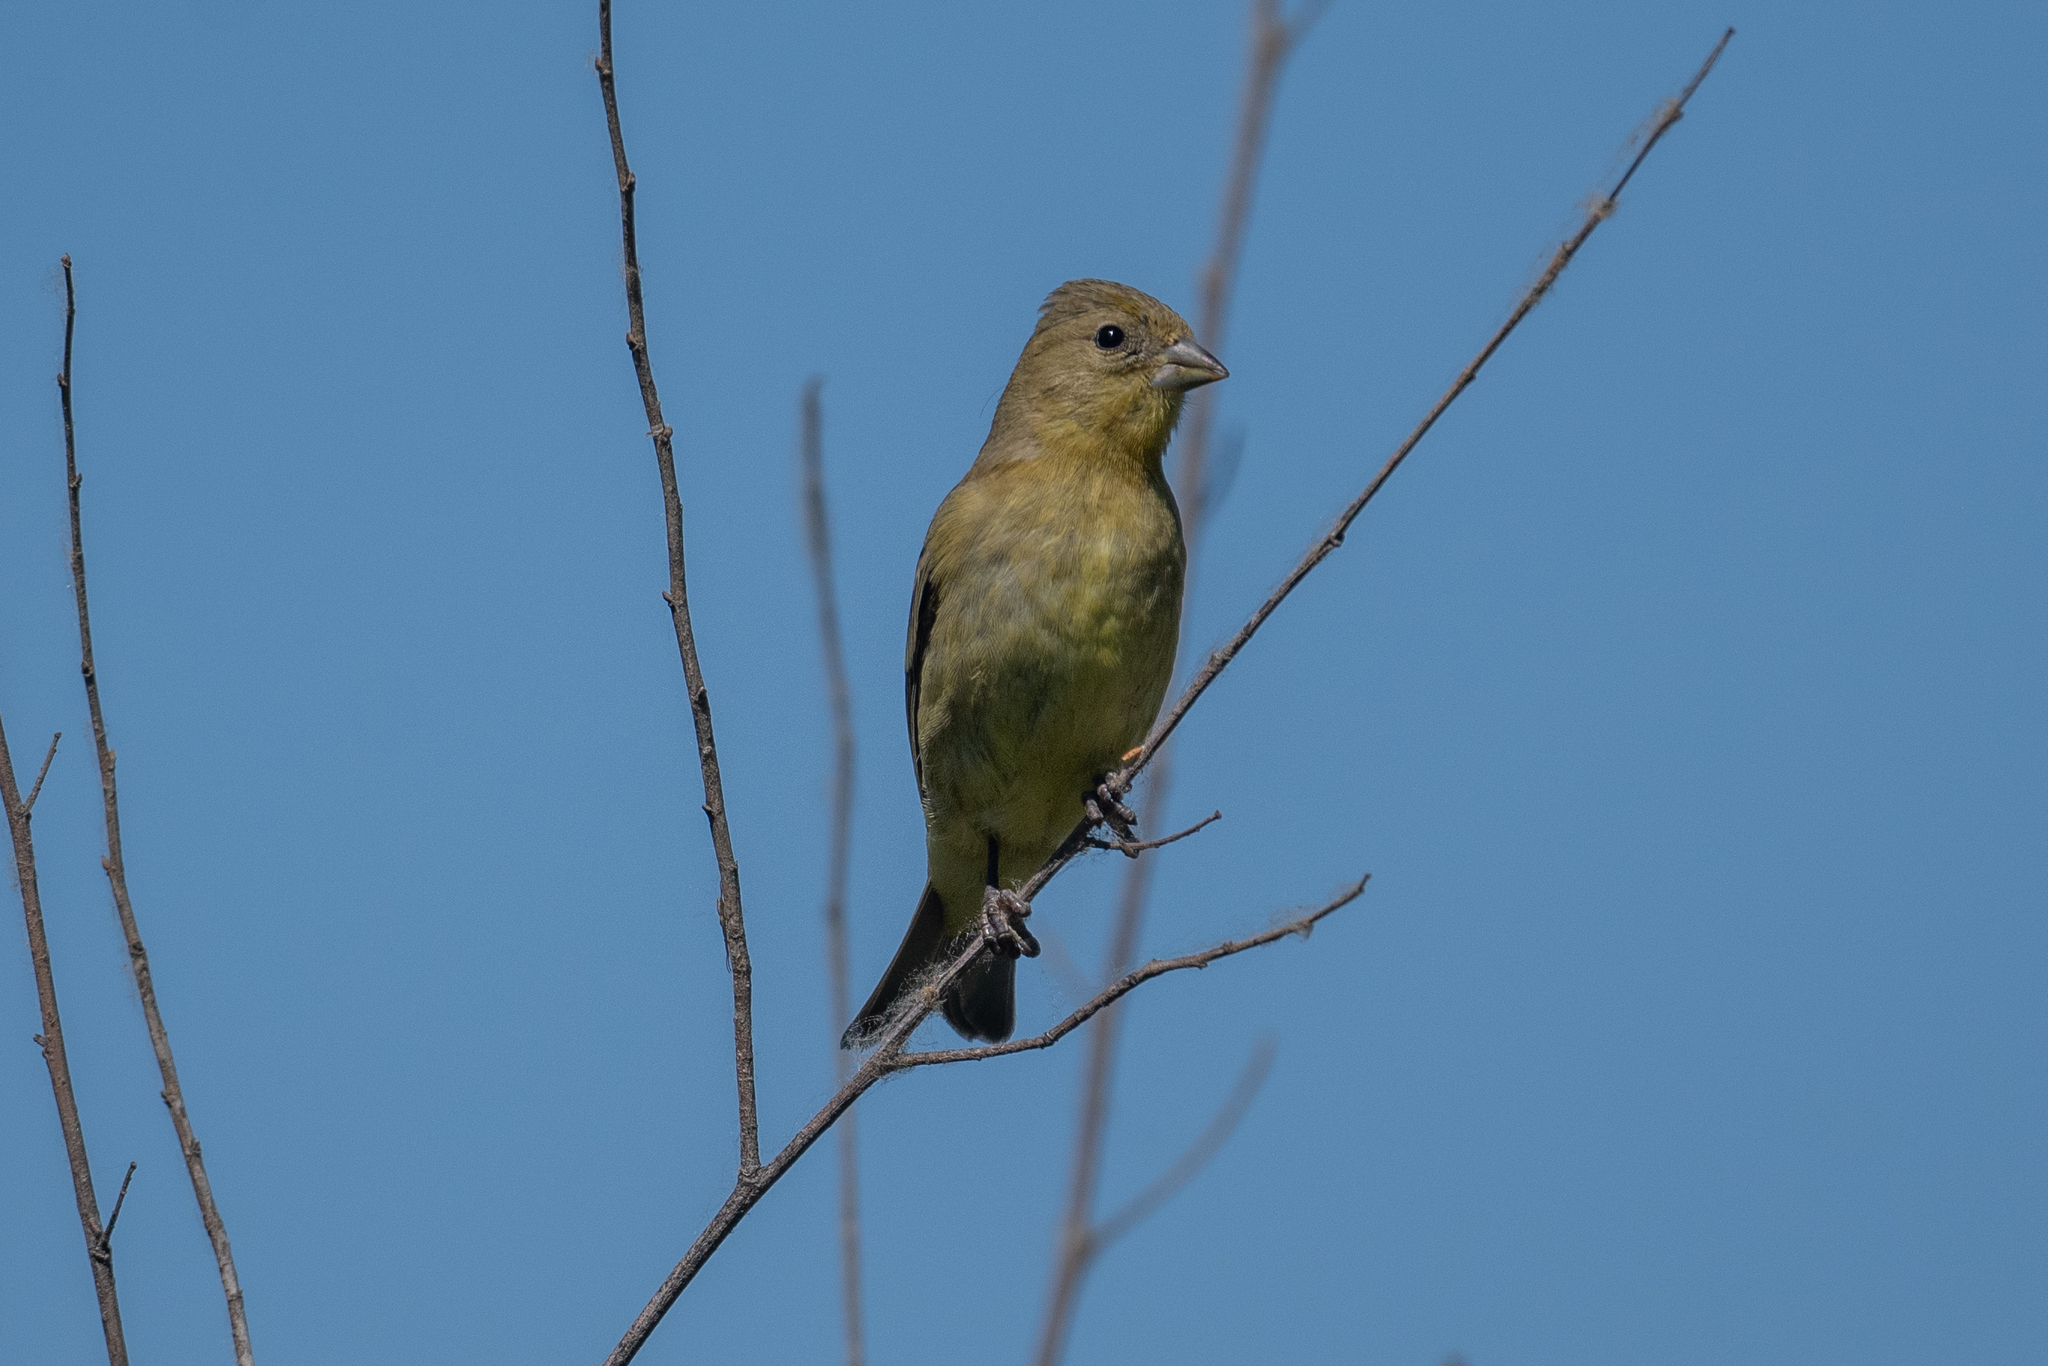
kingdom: Animalia
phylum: Chordata
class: Aves
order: Passeriformes
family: Fringillidae
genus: Spinus
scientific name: Spinus psaltria
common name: Lesser goldfinch
